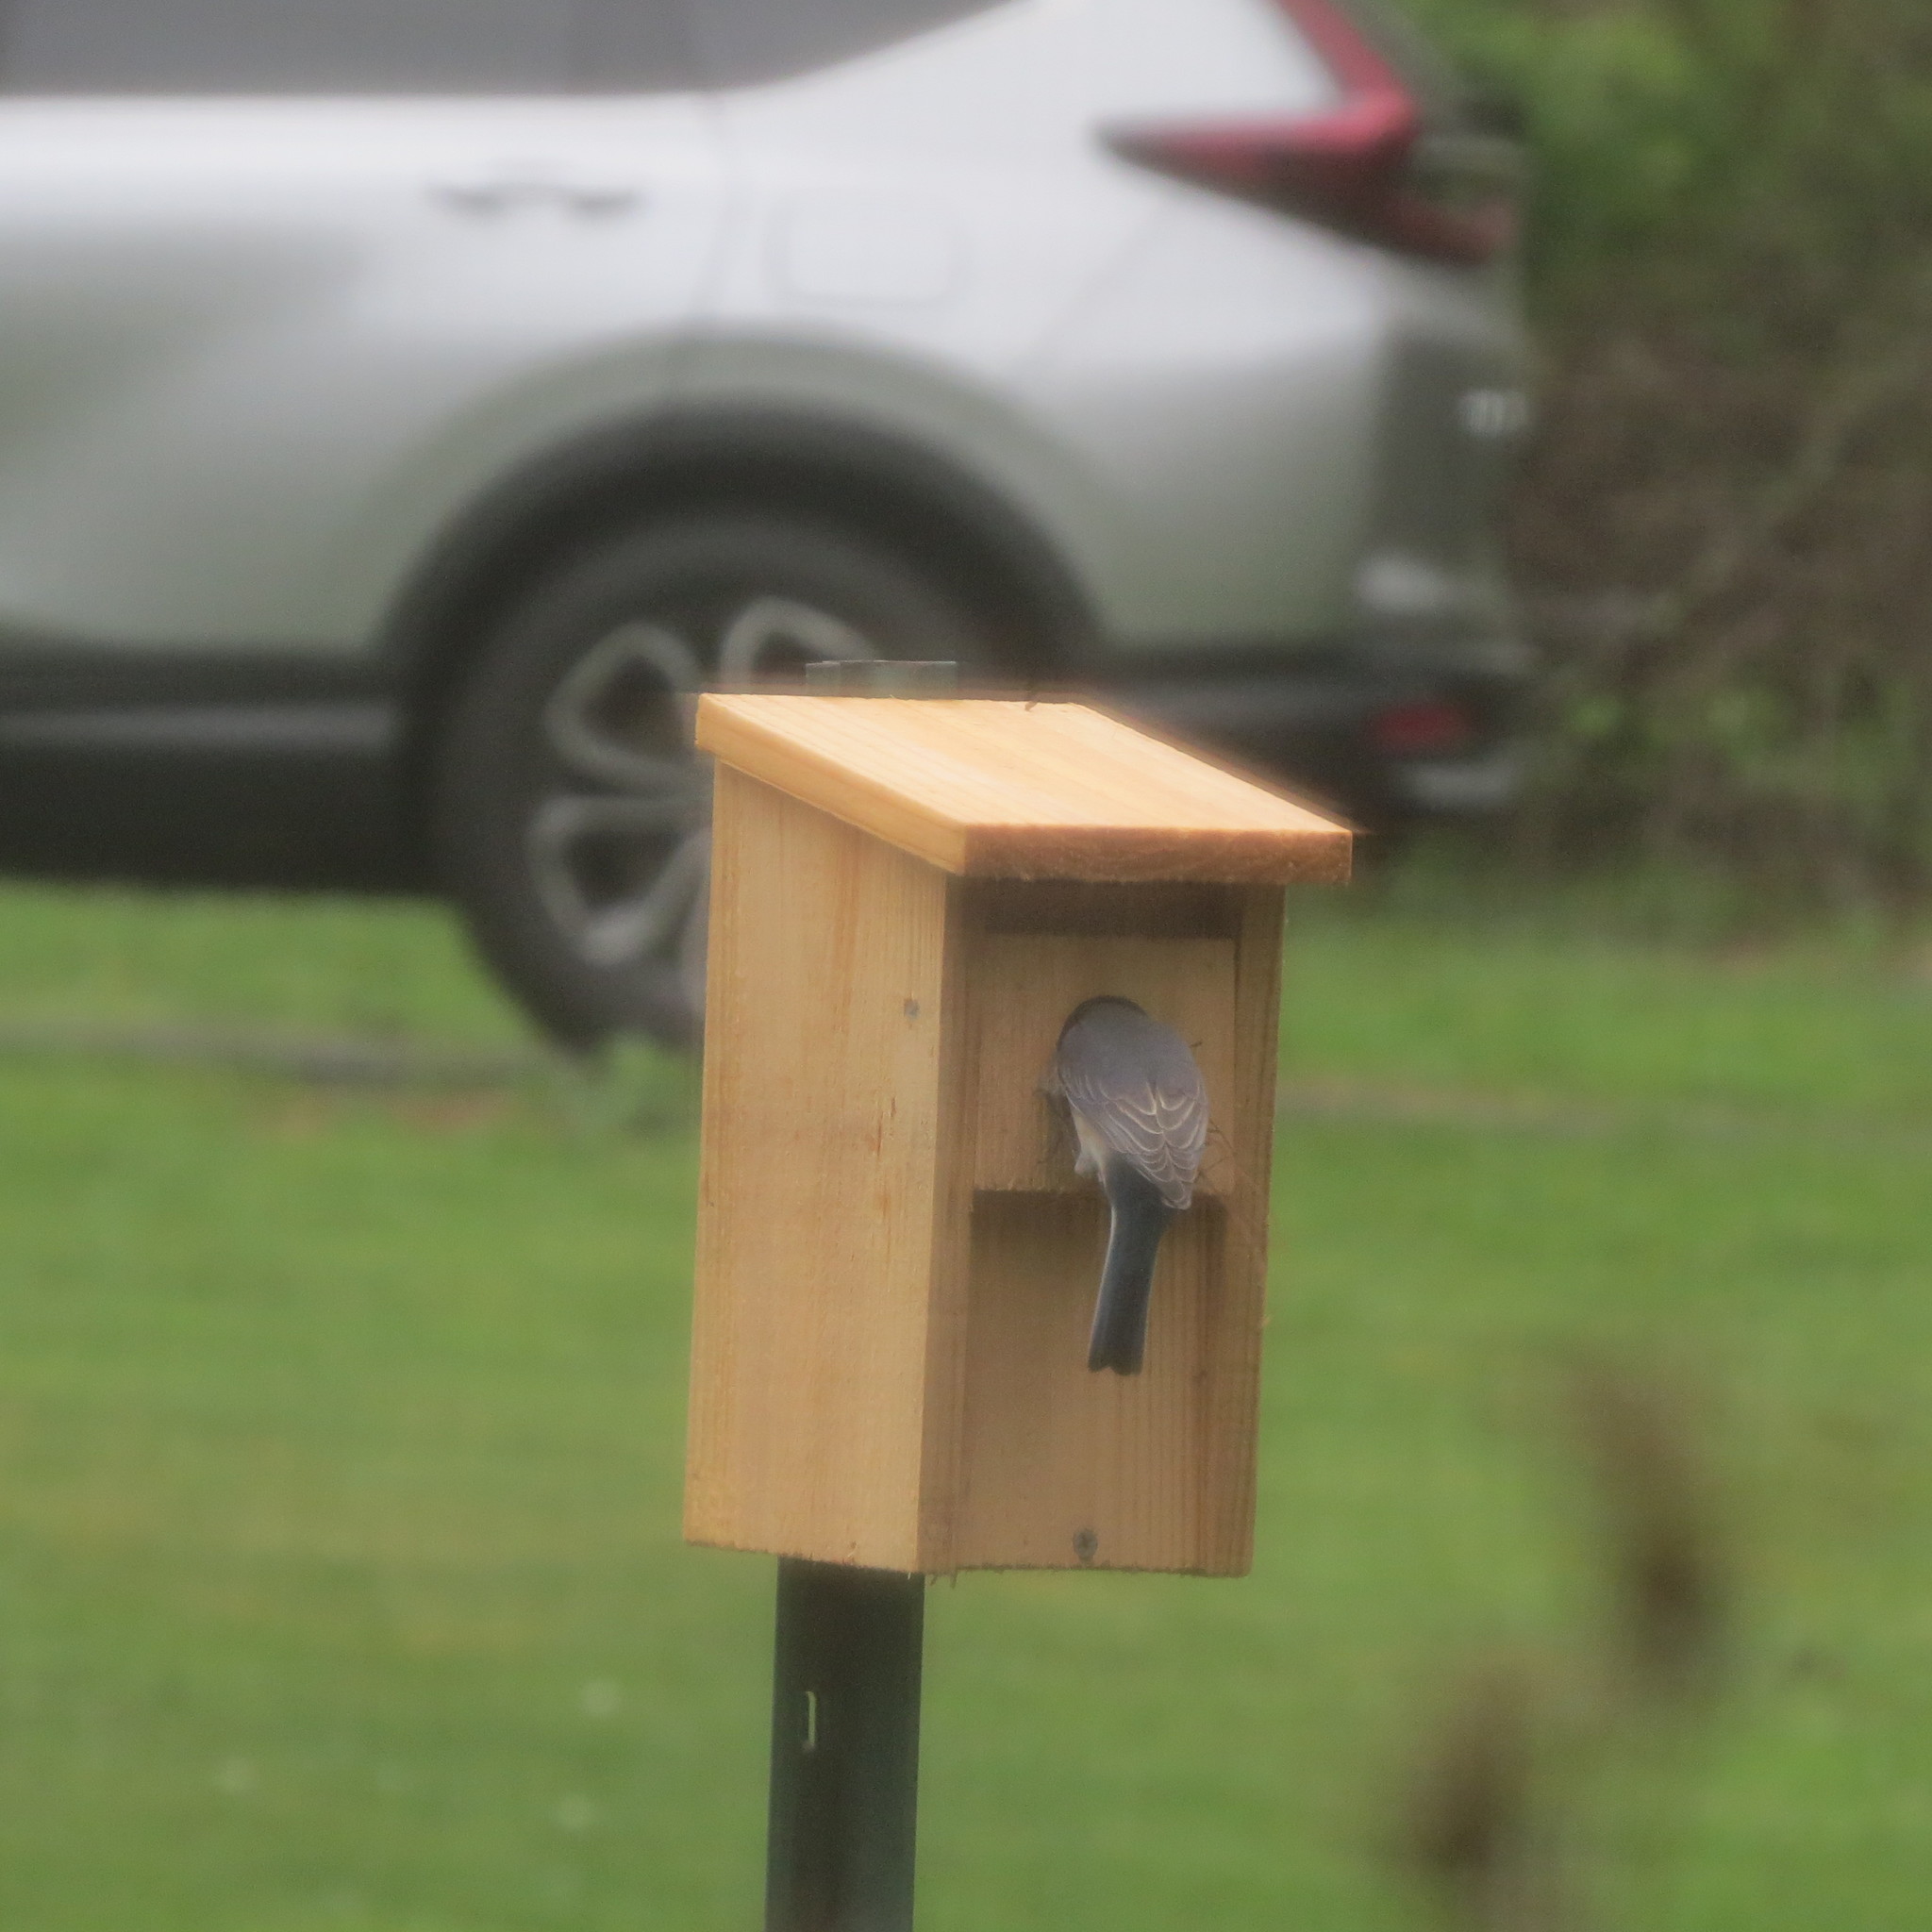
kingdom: Animalia
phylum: Chordata
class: Aves
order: Passeriformes
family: Turdidae
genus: Sialia
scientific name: Sialia sialis
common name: Eastern bluebird
